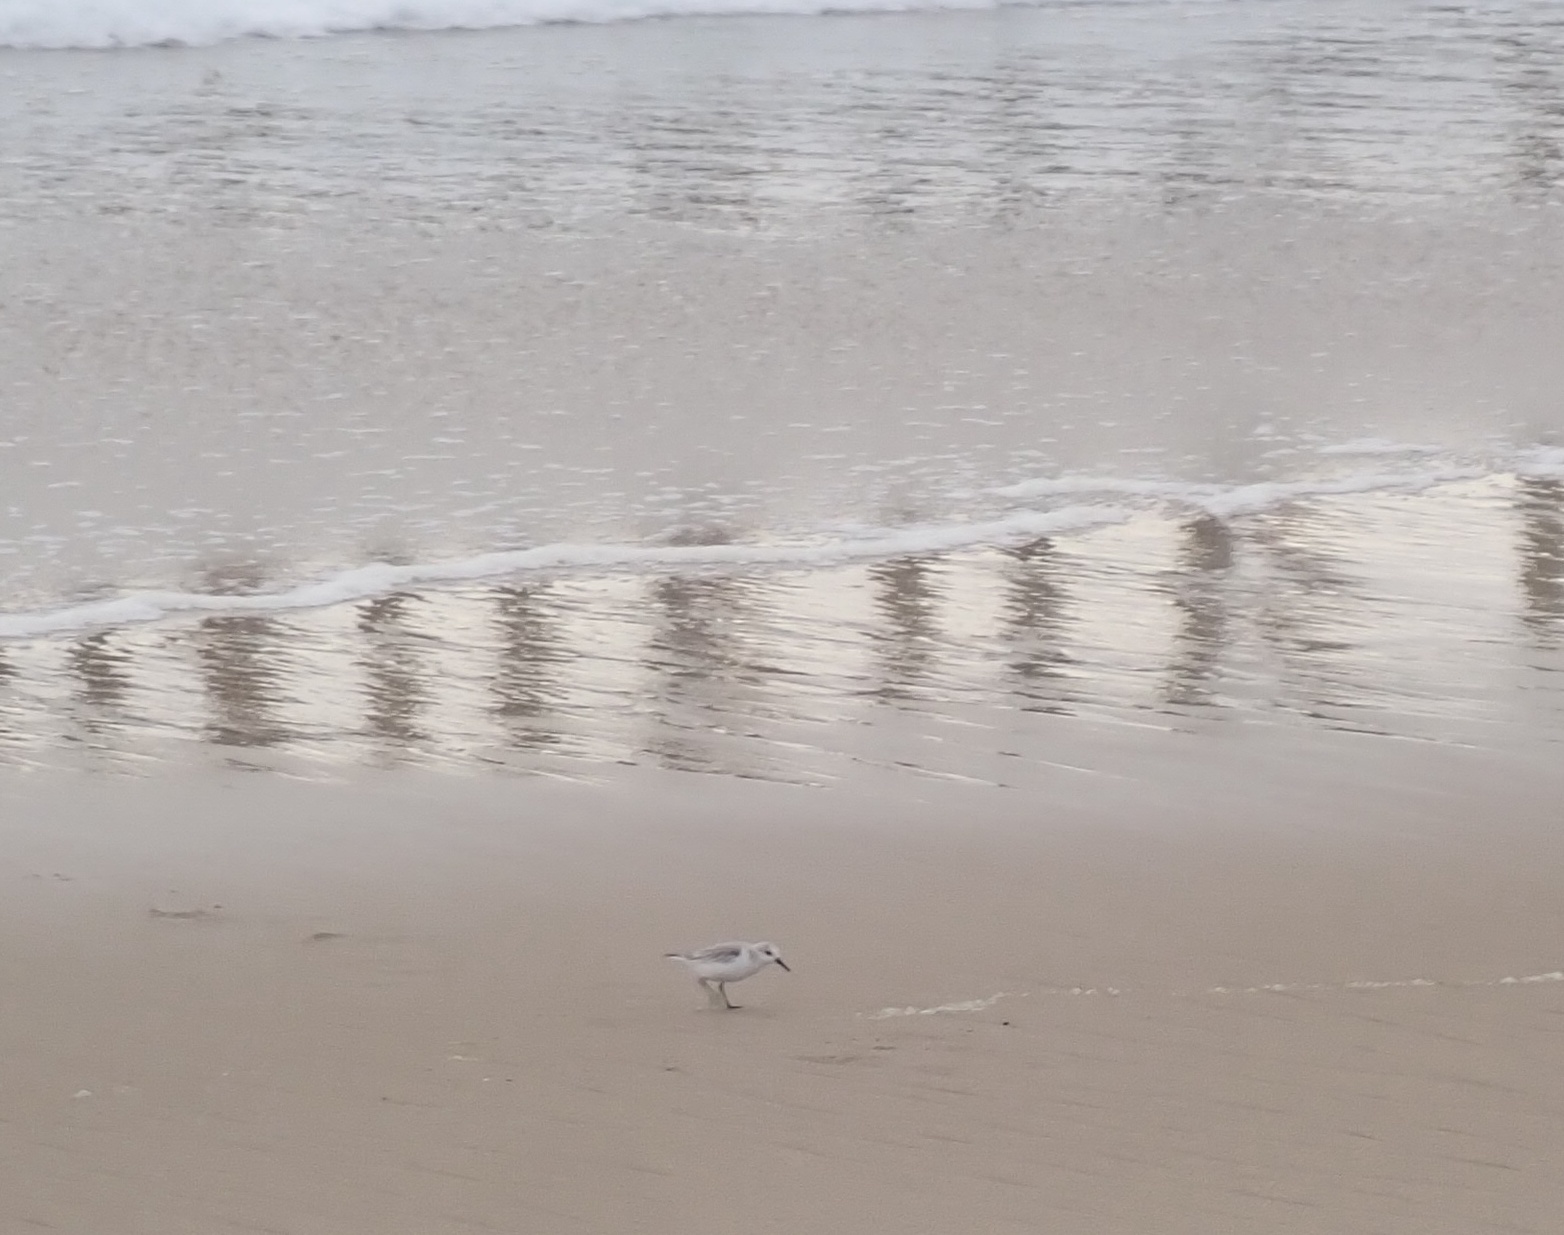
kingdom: Animalia
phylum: Chordata
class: Aves
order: Charadriiformes
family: Scolopacidae
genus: Calidris
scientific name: Calidris alba
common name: Sanderling
